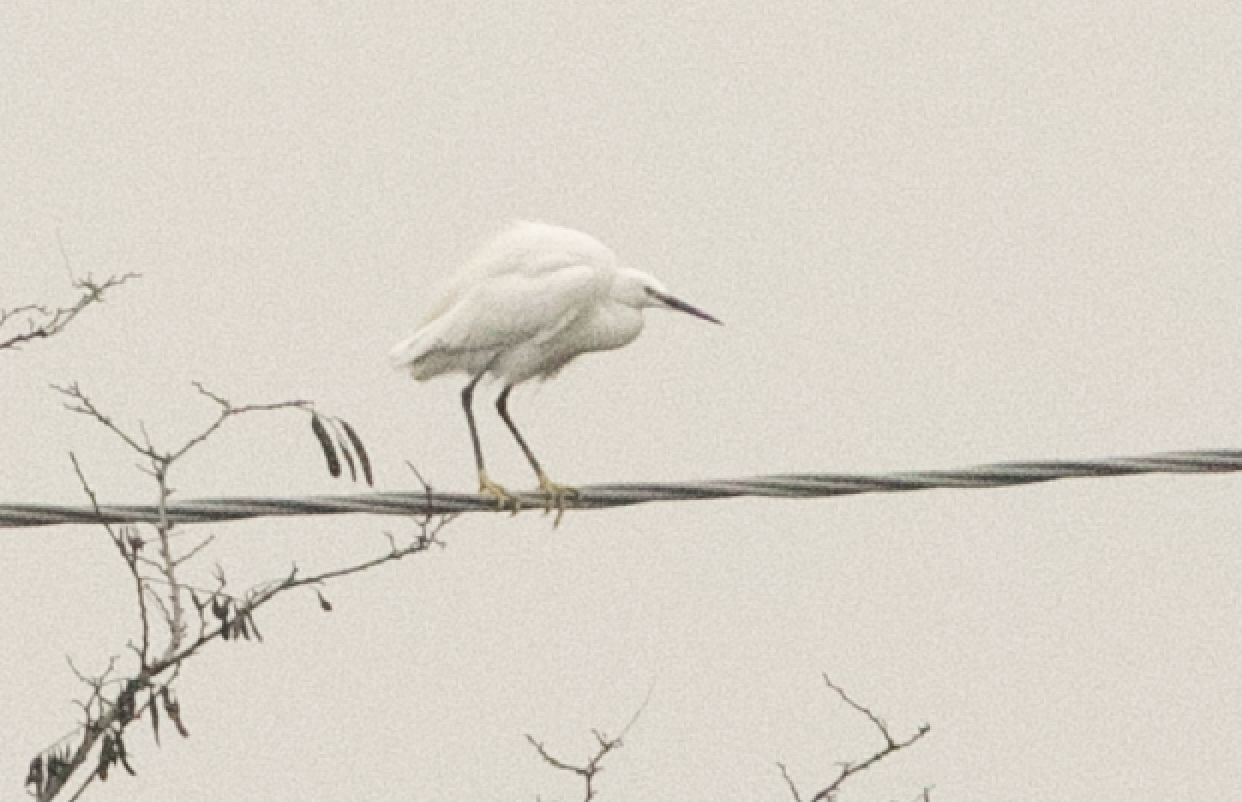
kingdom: Animalia
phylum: Chordata
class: Aves
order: Pelecaniformes
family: Ardeidae
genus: Egretta
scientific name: Egretta garzetta
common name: Little egret
